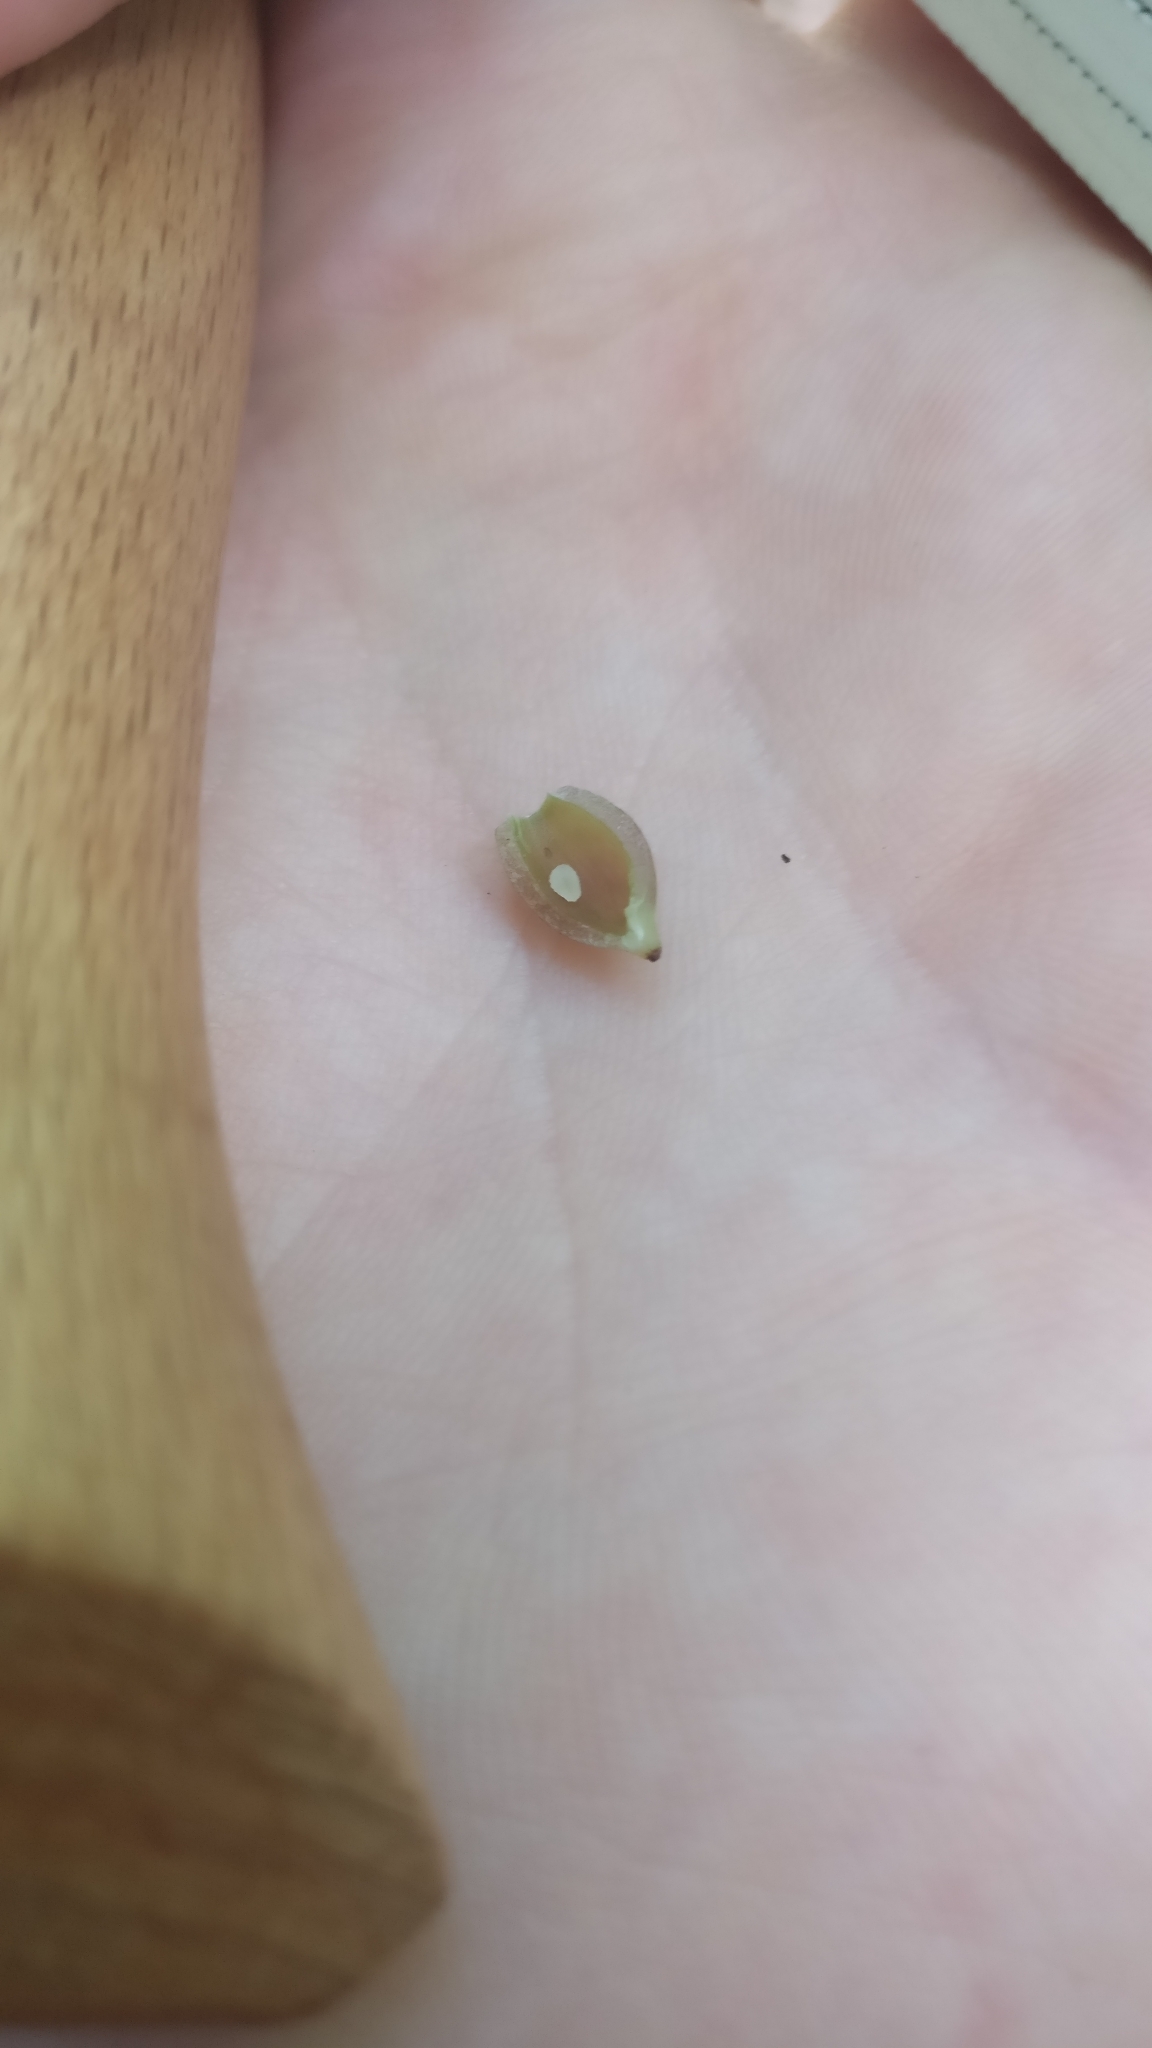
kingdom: Animalia
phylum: Arthropoda
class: Insecta
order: Diptera
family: Cecidomyiidae
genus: Mikiola
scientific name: Mikiola fagi
